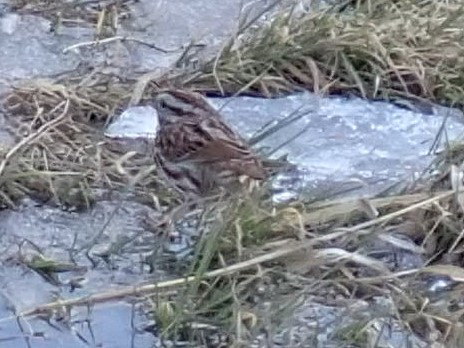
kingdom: Animalia
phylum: Chordata
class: Aves
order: Passeriformes
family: Passerellidae
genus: Melospiza
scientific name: Melospiza melodia
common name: Song sparrow
